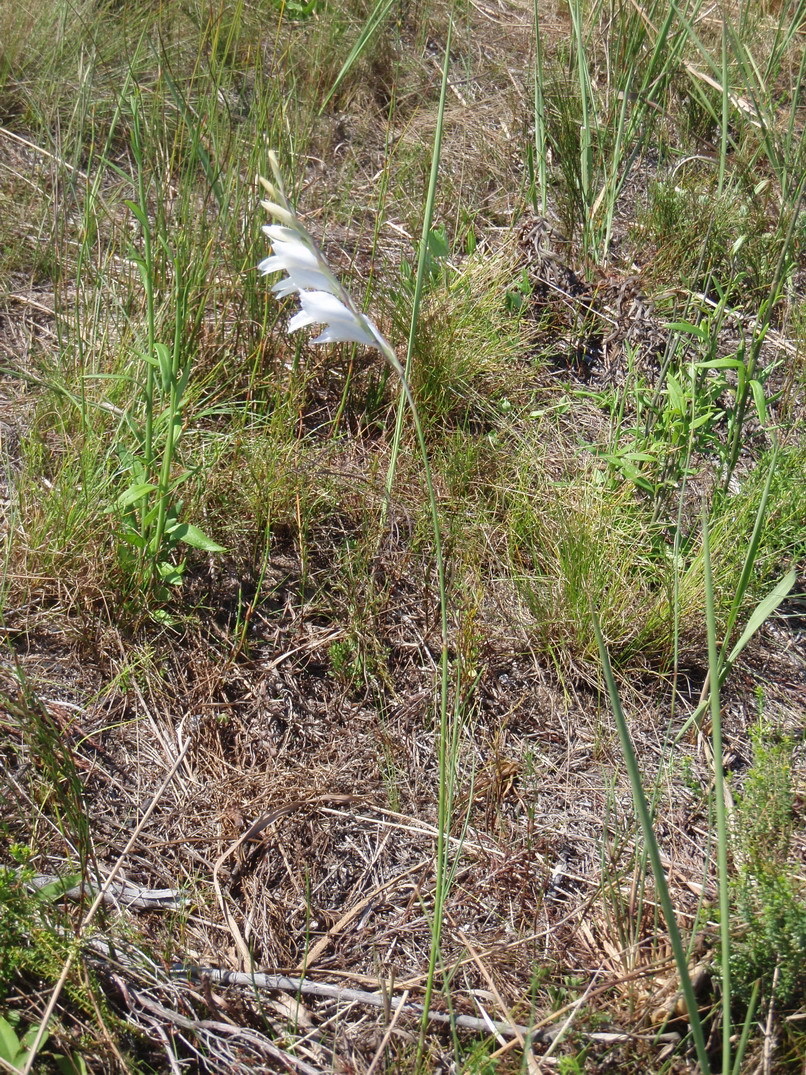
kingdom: Plantae
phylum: Tracheophyta
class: Liliopsida
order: Asparagales
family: Iridaceae
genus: Gladiolus
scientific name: Gladiolus vaginatus
